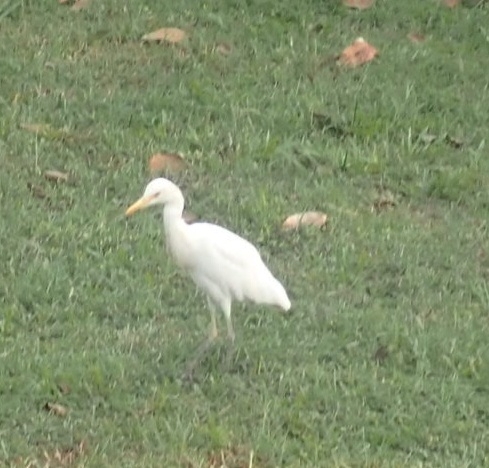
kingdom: Animalia
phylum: Chordata
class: Aves
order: Pelecaniformes
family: Ardeidae
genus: Bubulcus
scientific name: Bubulcus coromandus
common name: Eastern cattle egret
